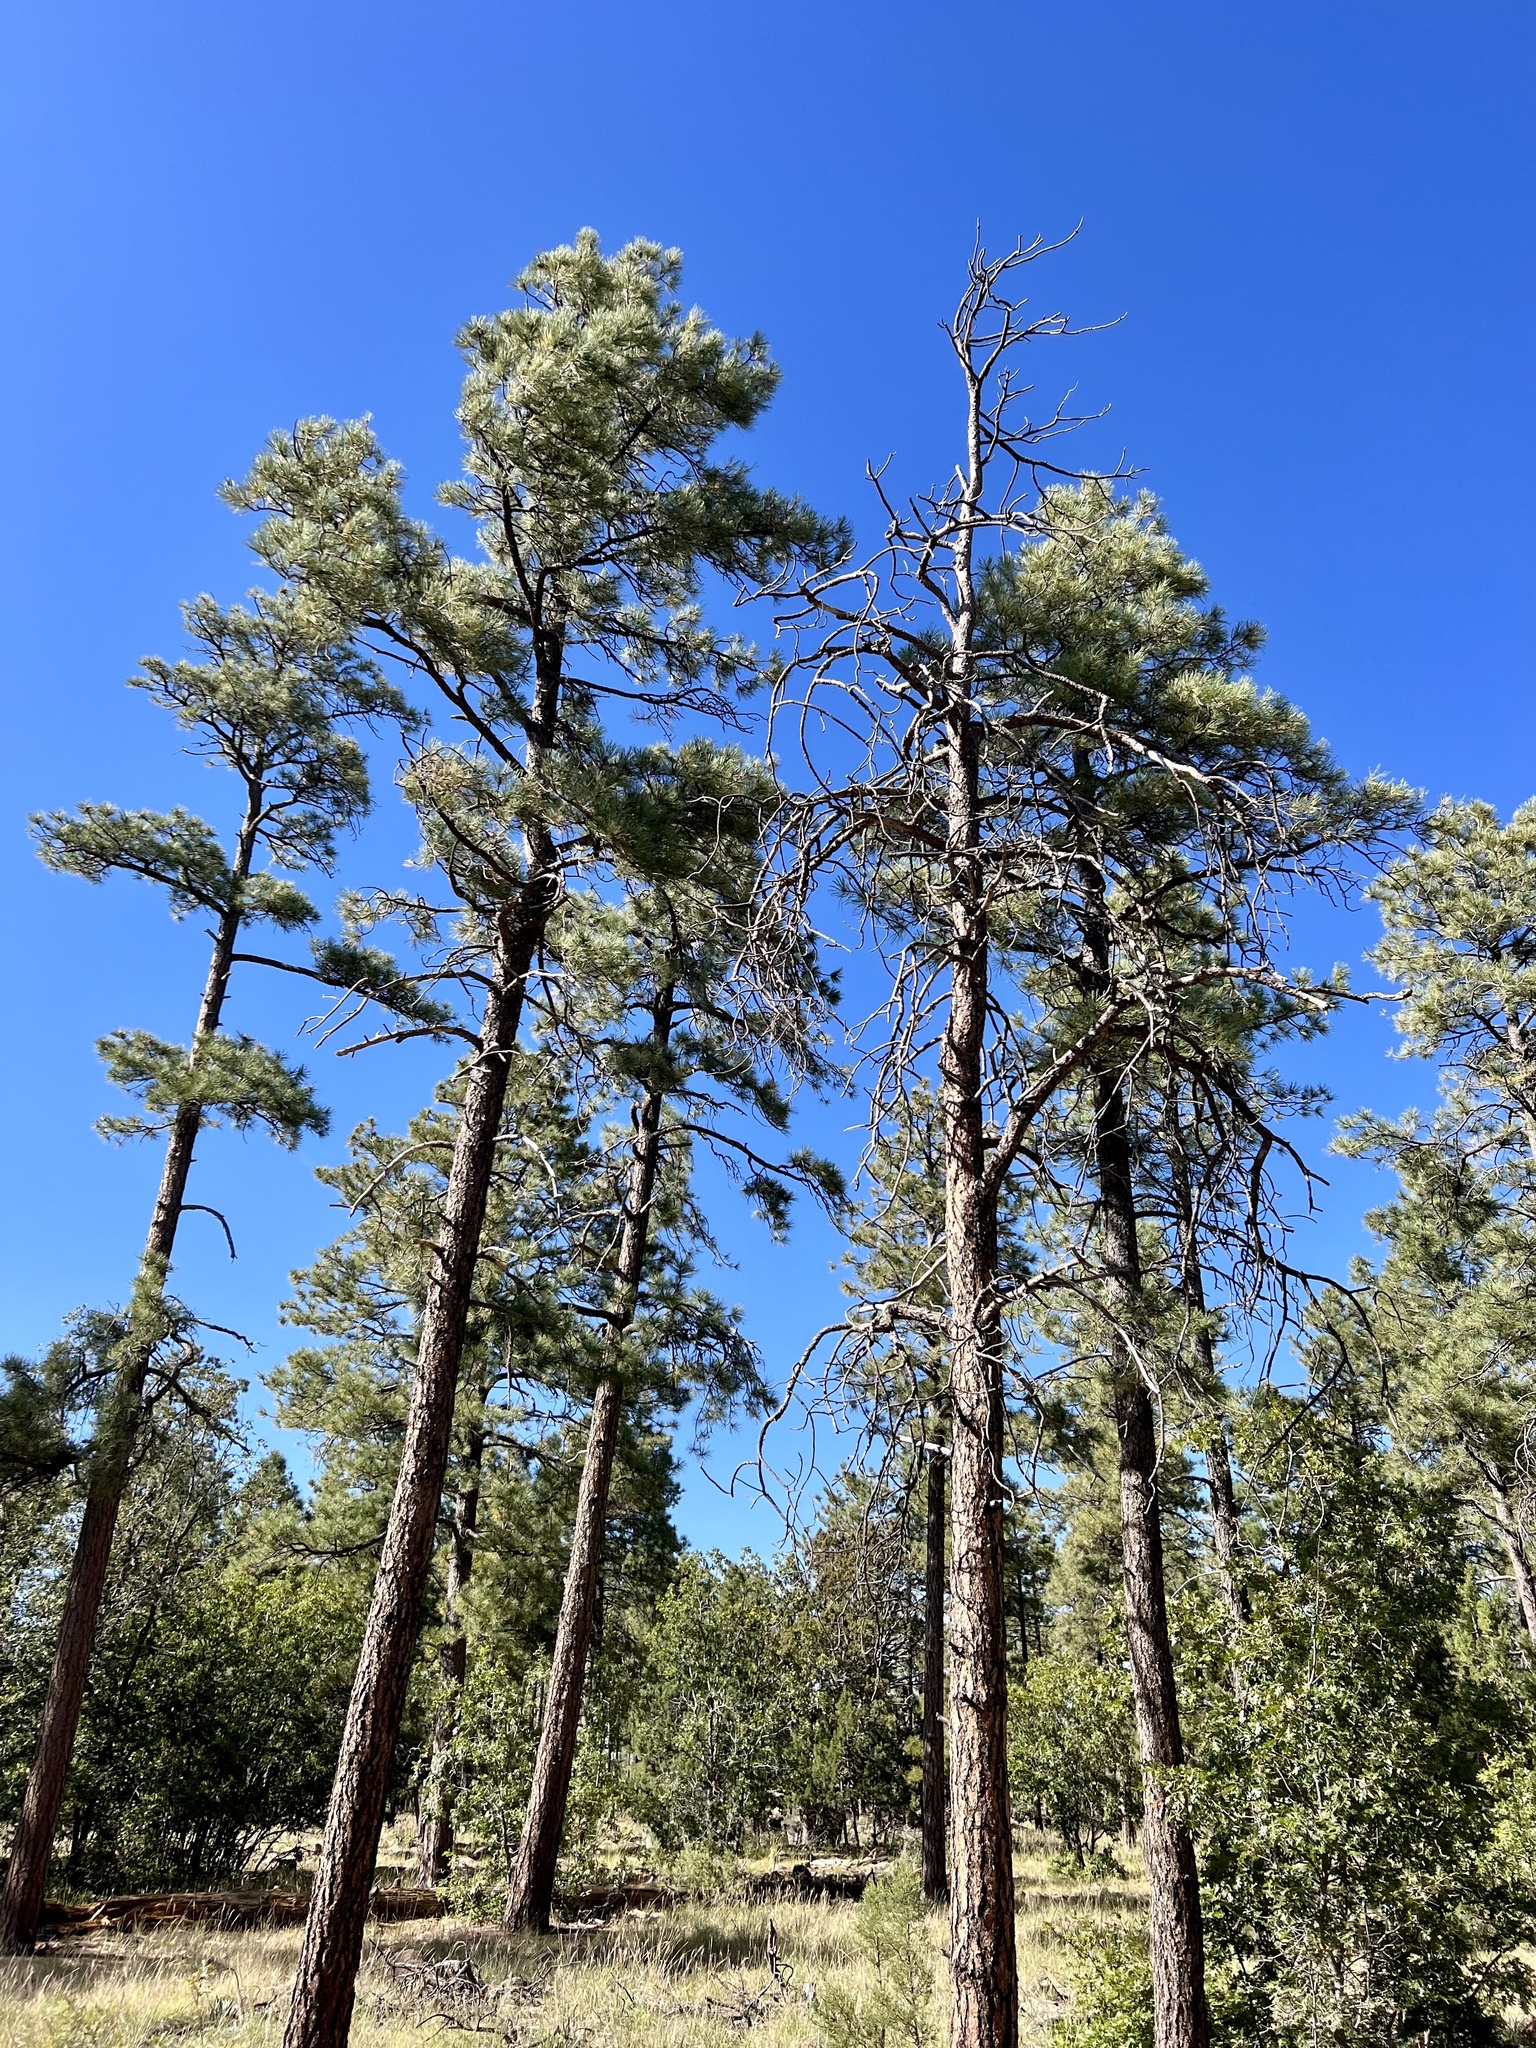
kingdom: Plantae
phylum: Tracheophyta
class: Pinopsida
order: Pinales
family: Pinaceae
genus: Pinus
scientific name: Pinus ponderosa
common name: Western yellow-pine
